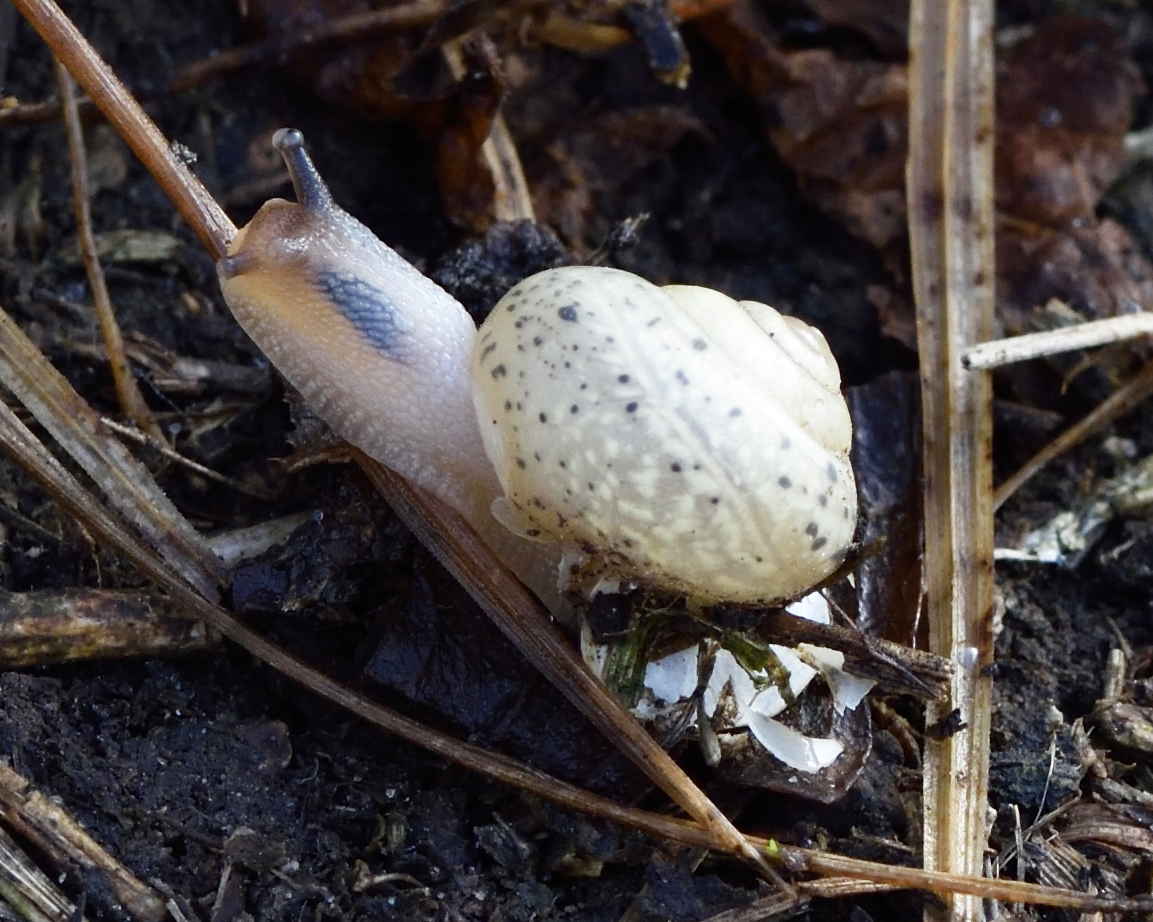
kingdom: Animalia
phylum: Mollusca
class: Gastropoda
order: Stylommatophora
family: Camaenidae
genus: Fruticicola
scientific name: Fruticicola fruticum
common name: Bush snail
